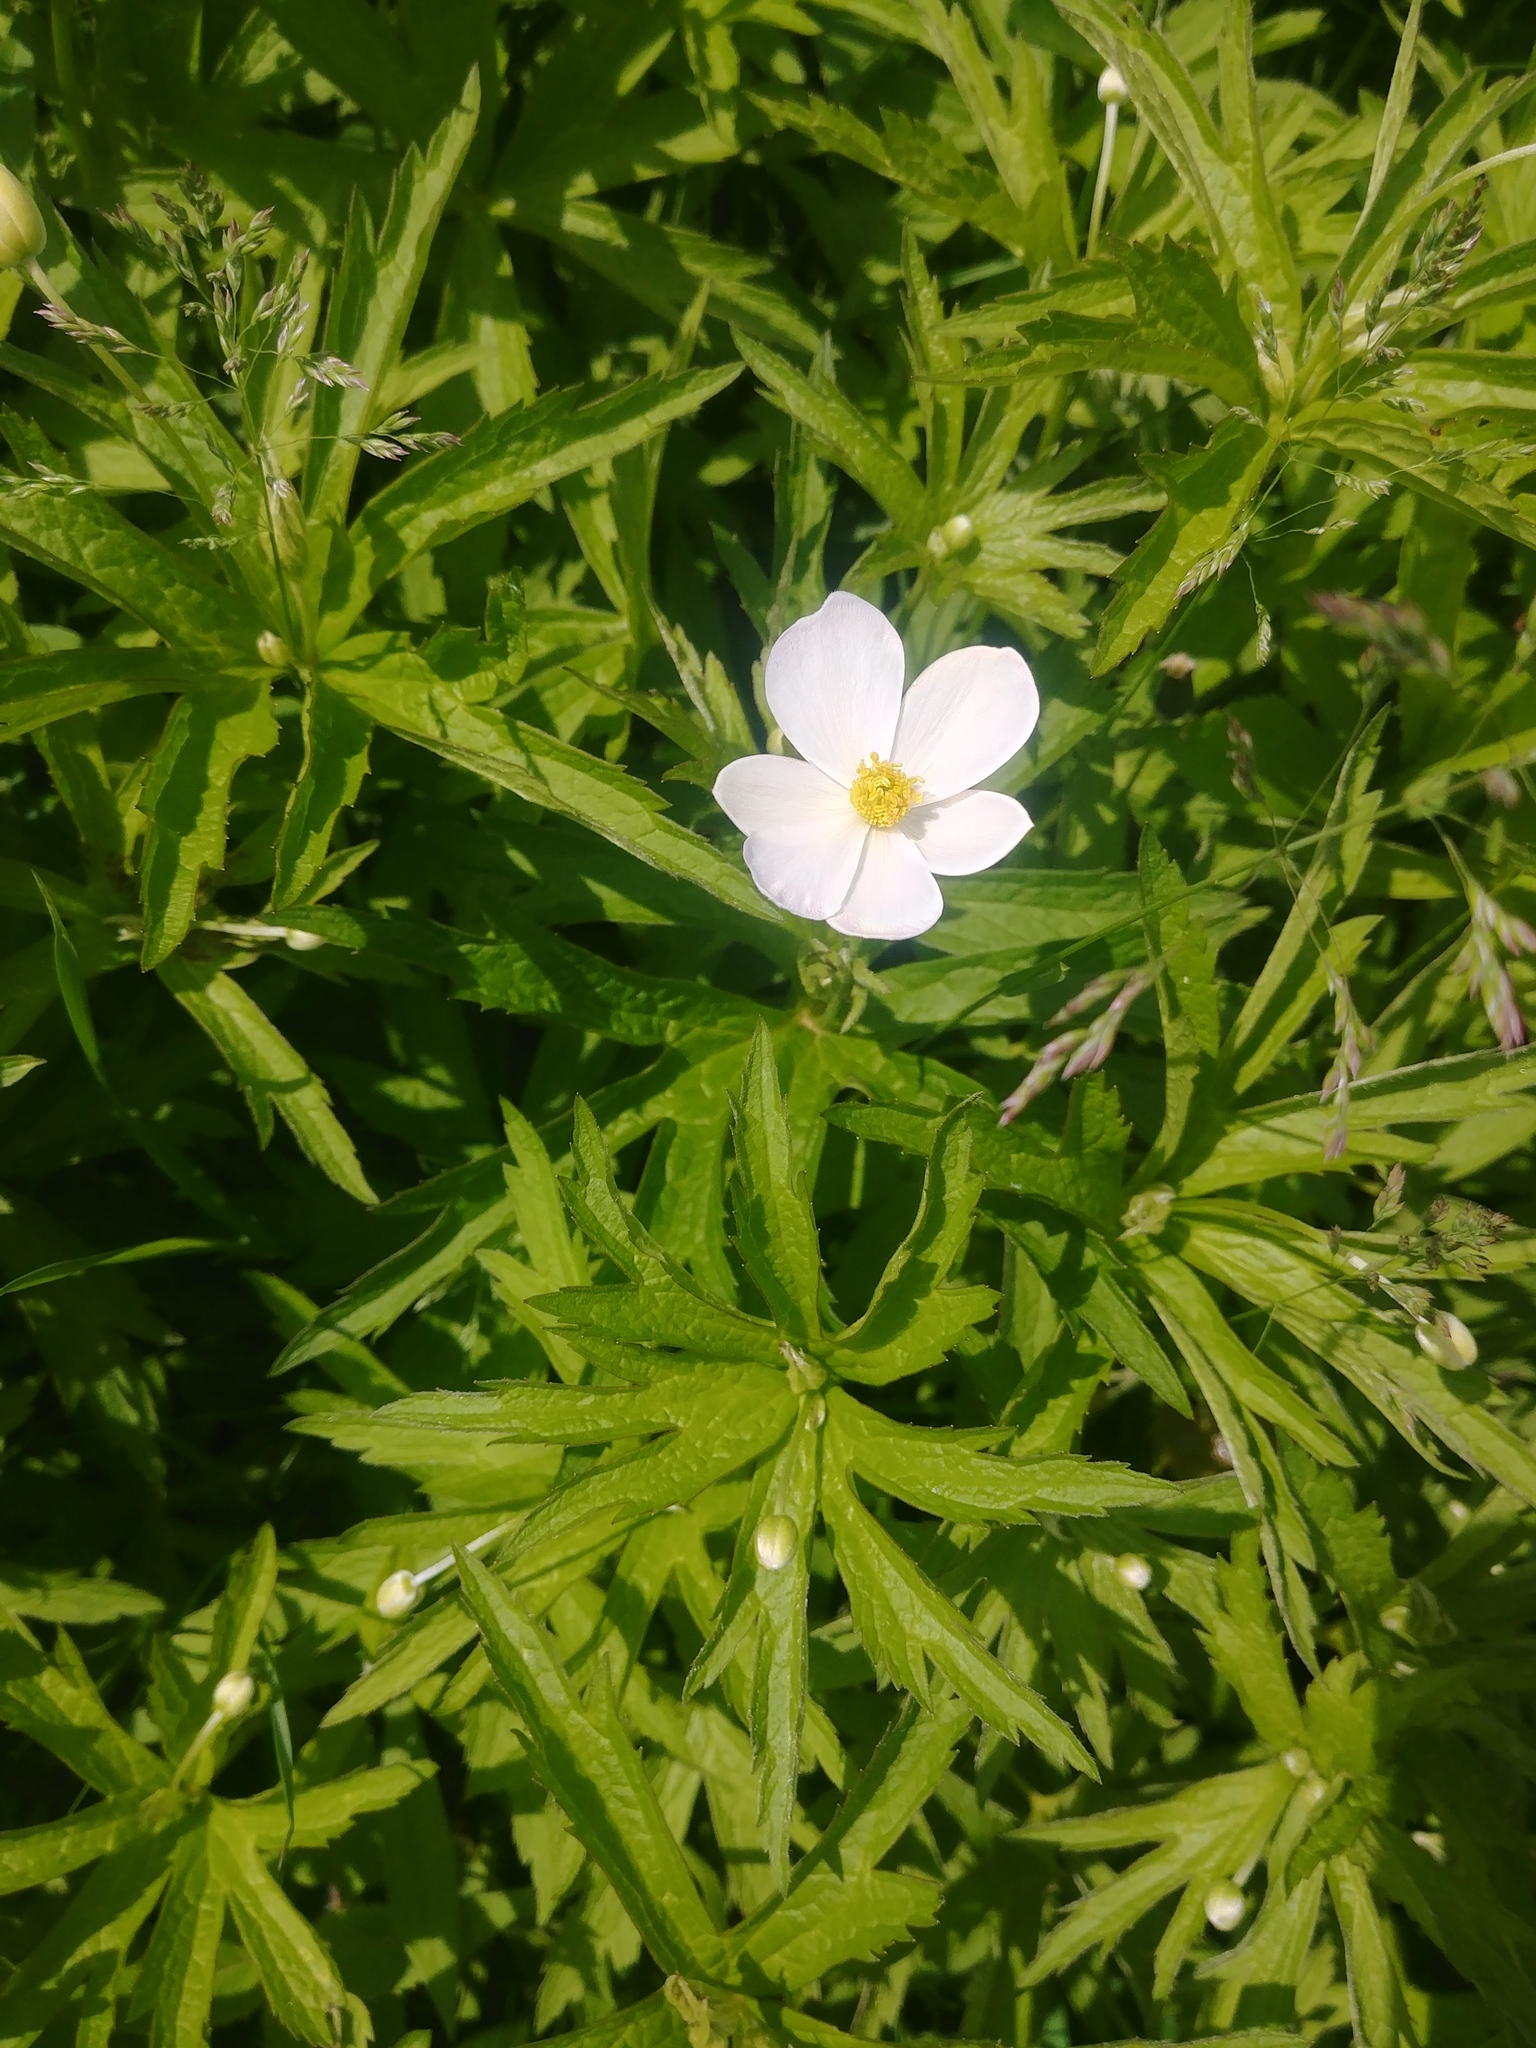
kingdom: Plantae
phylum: Tracheophyta
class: Magnoliopsida
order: Ranunculales
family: Ranunculaceae
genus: Anemonastrum
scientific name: Anemonastrum canadense
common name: Canada anemone
